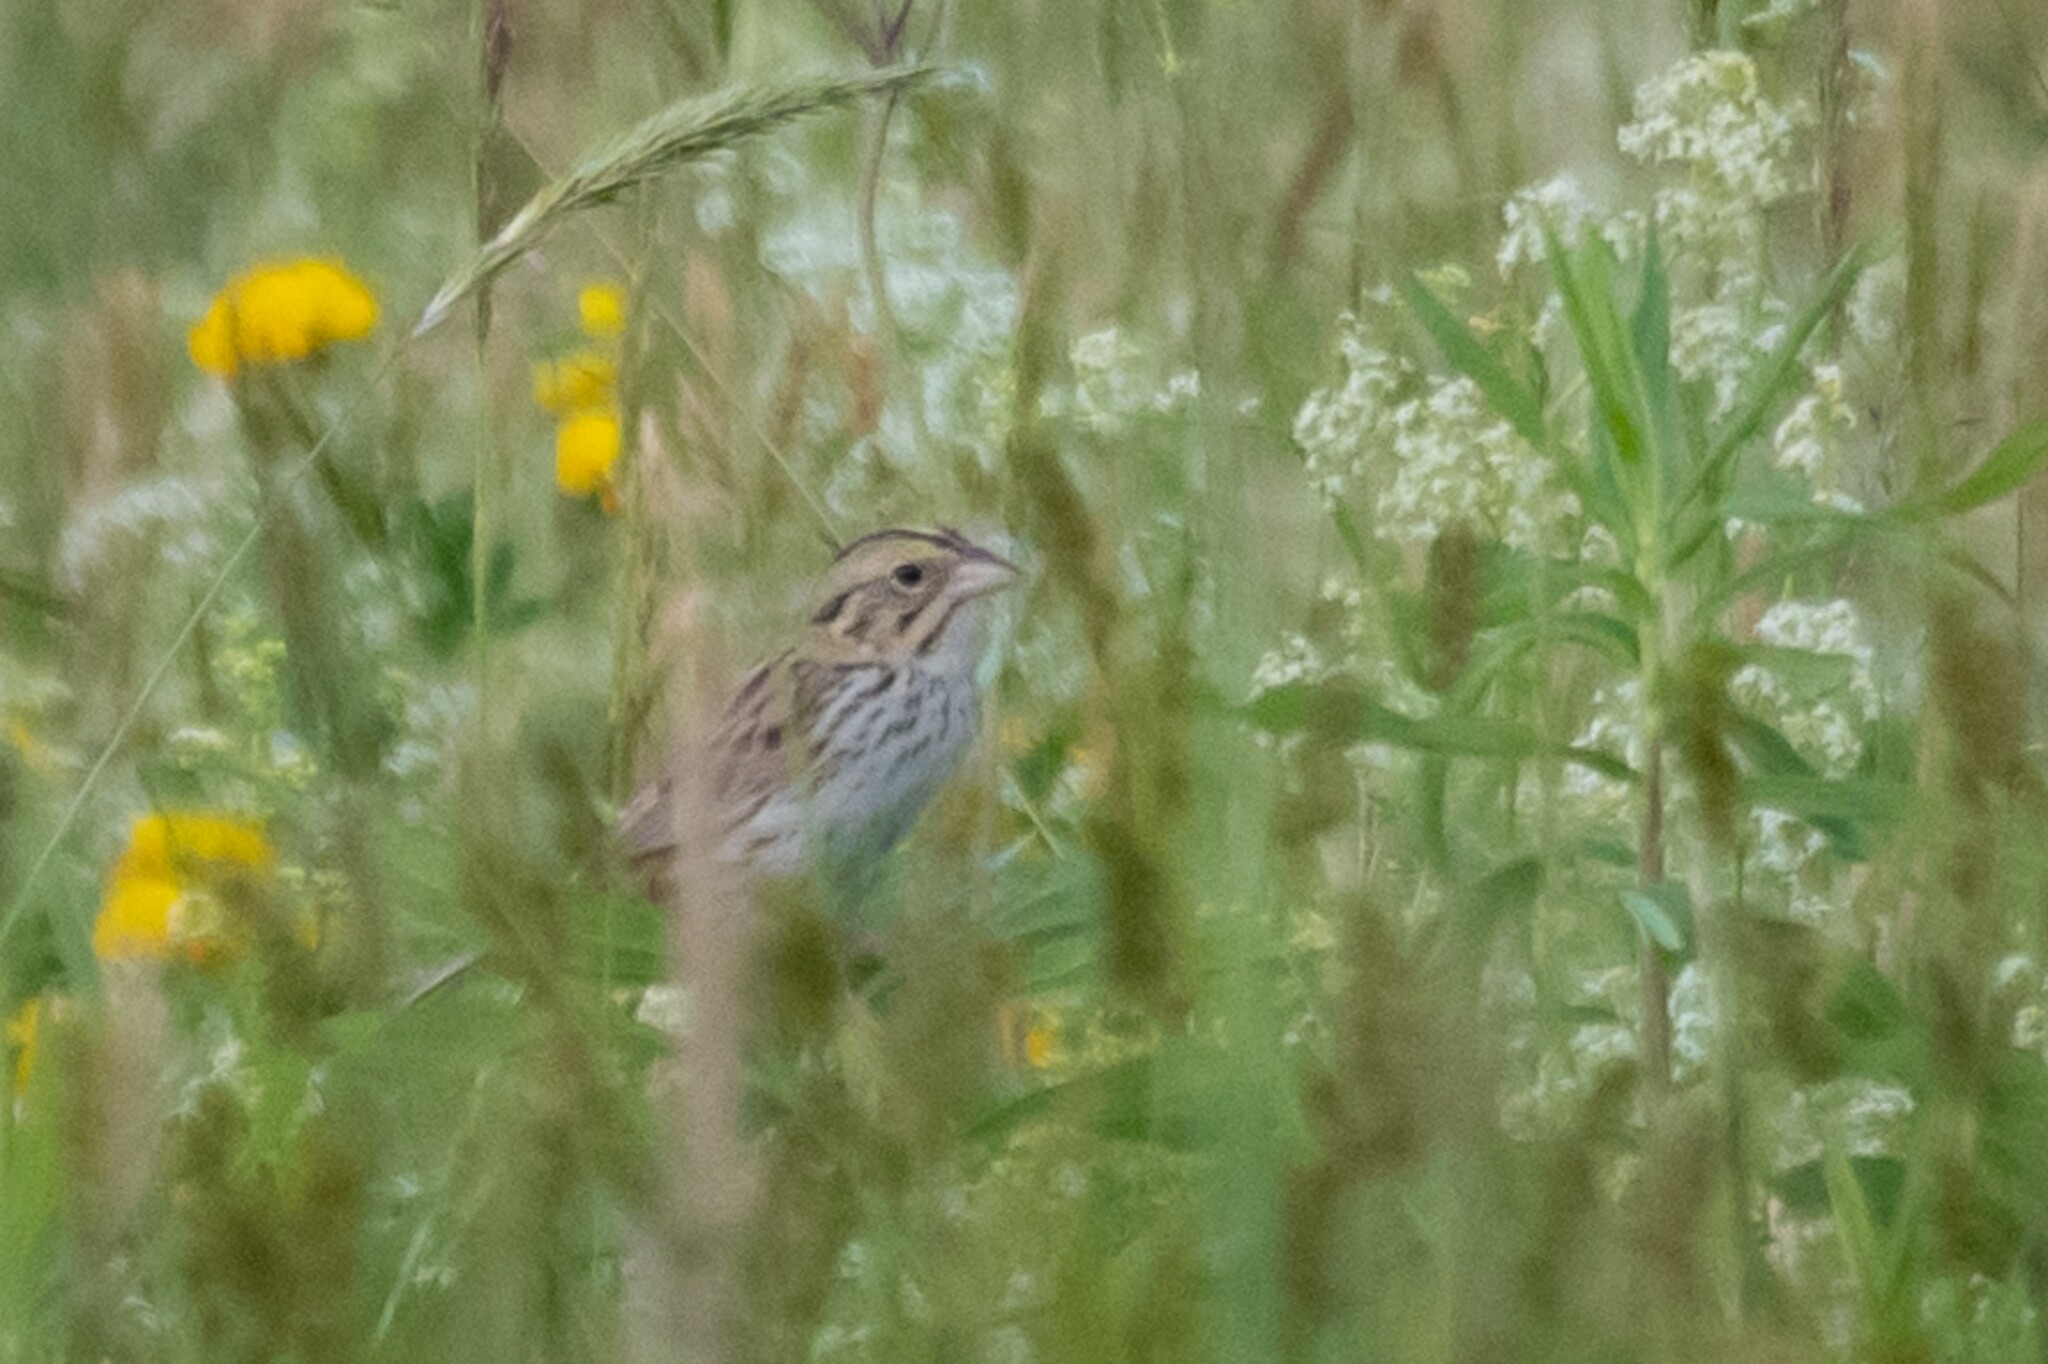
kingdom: Animalia
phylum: Chordata
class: Aves
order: Passeriformes
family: Passerellidae
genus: Centronyx
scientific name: Centronyx henslowii
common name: Henslow's sparrow
